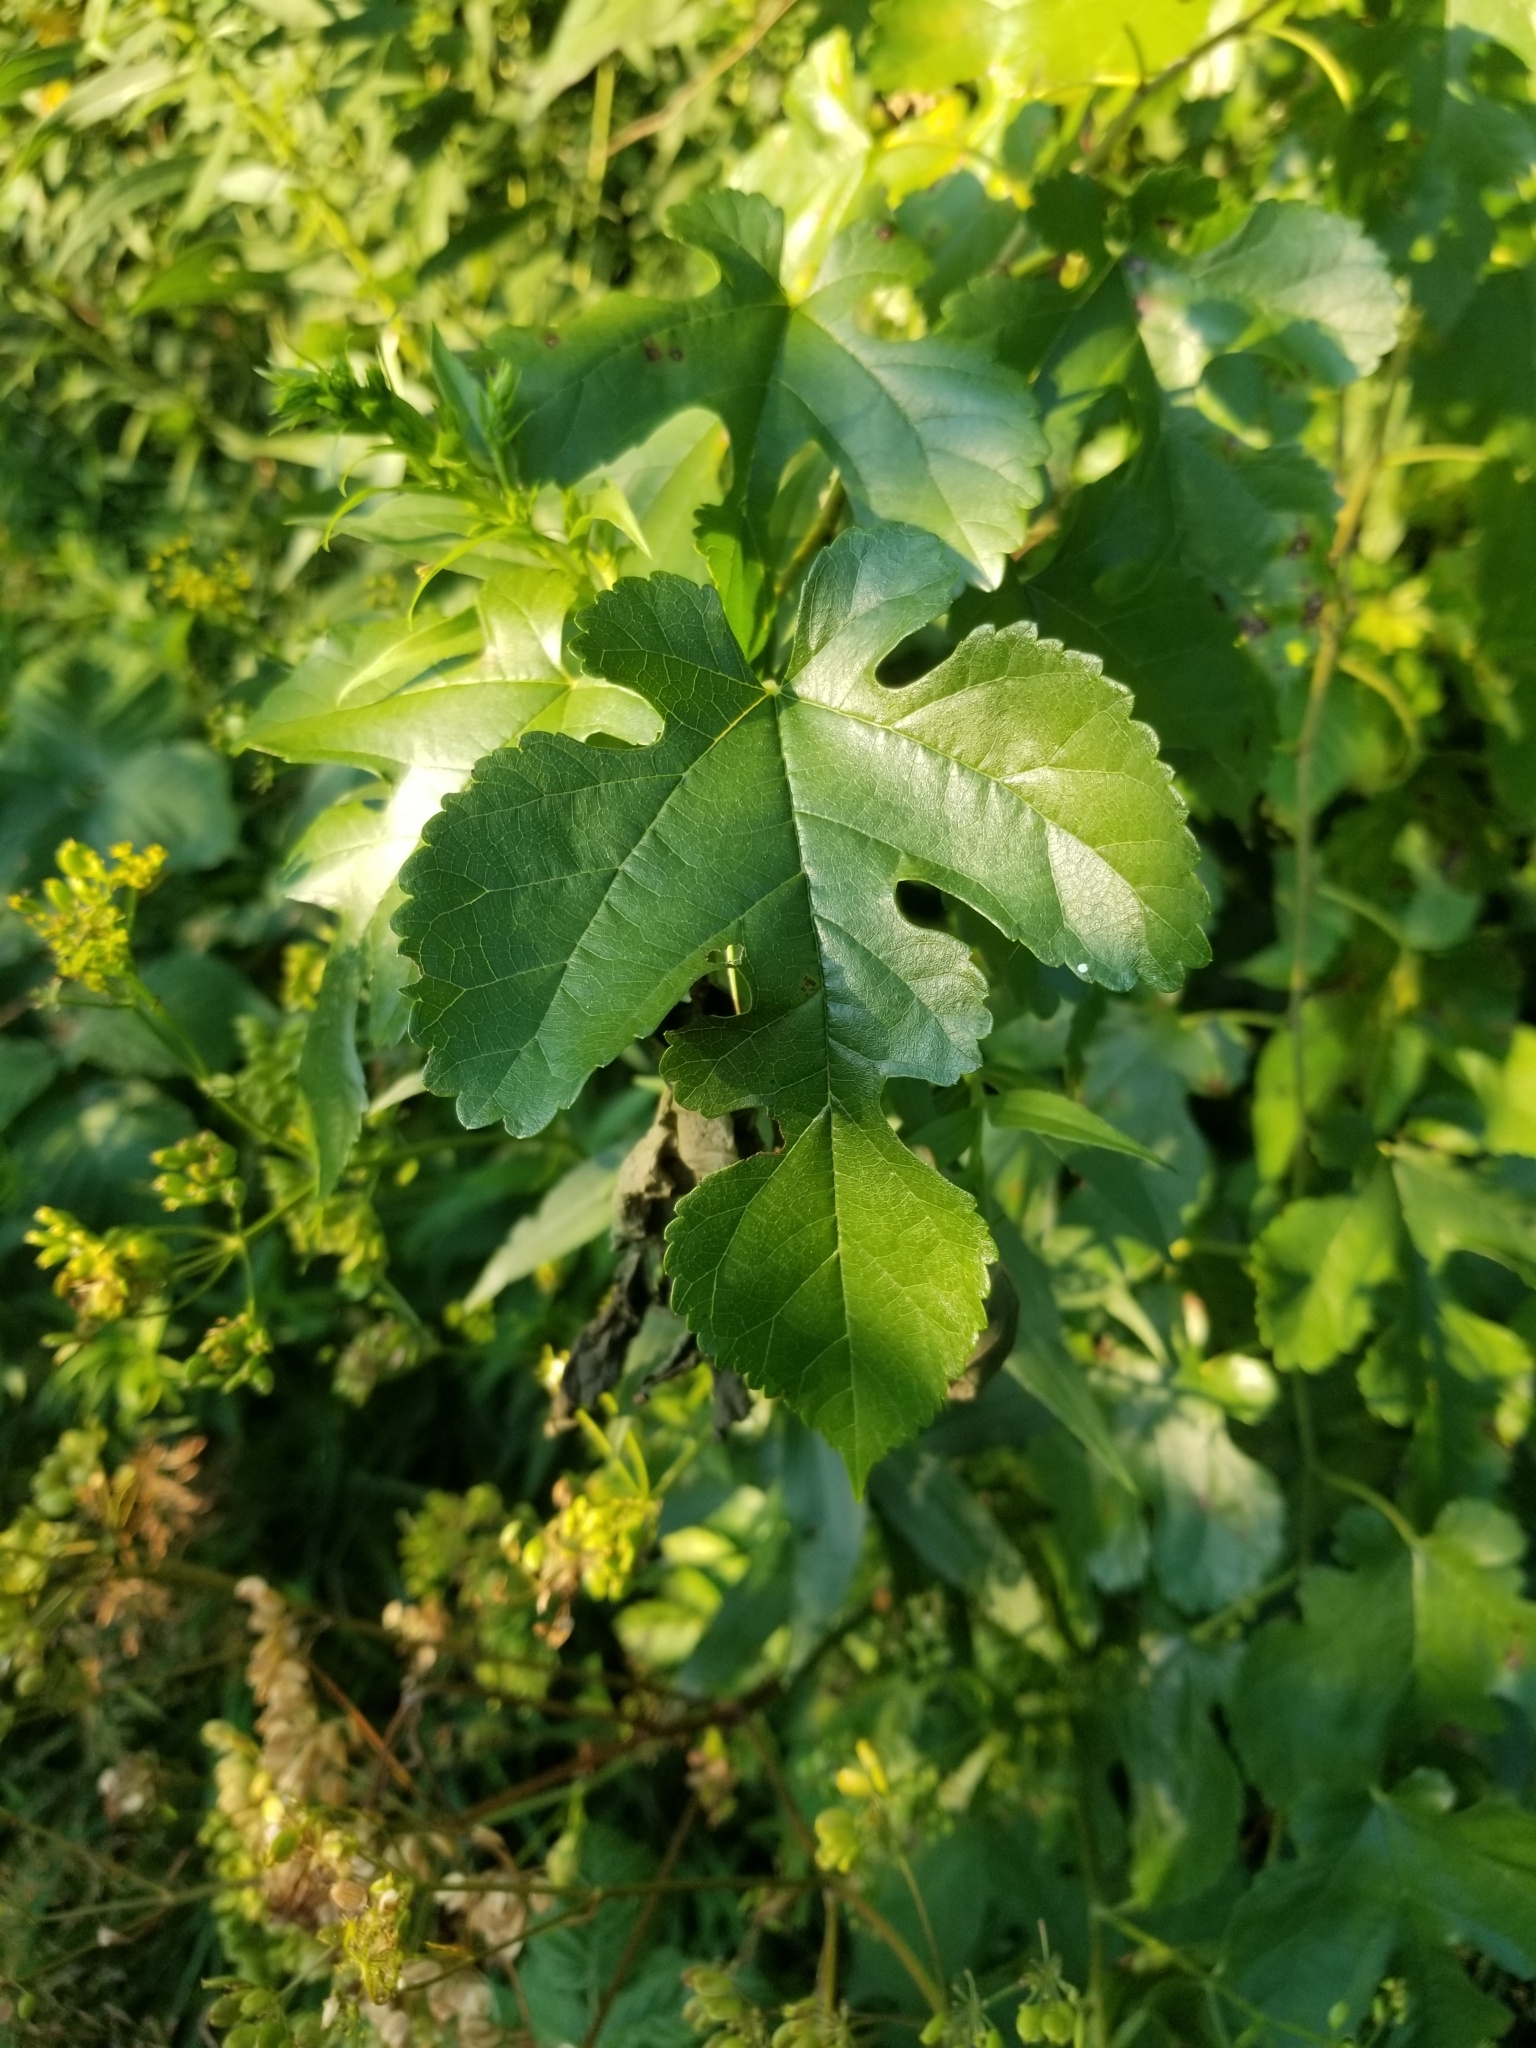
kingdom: Plantae
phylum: Tracheophyta
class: Magnoliopsida
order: Rosales
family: Moraceae
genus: Morus
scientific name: Morus alba
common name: White mulberry
